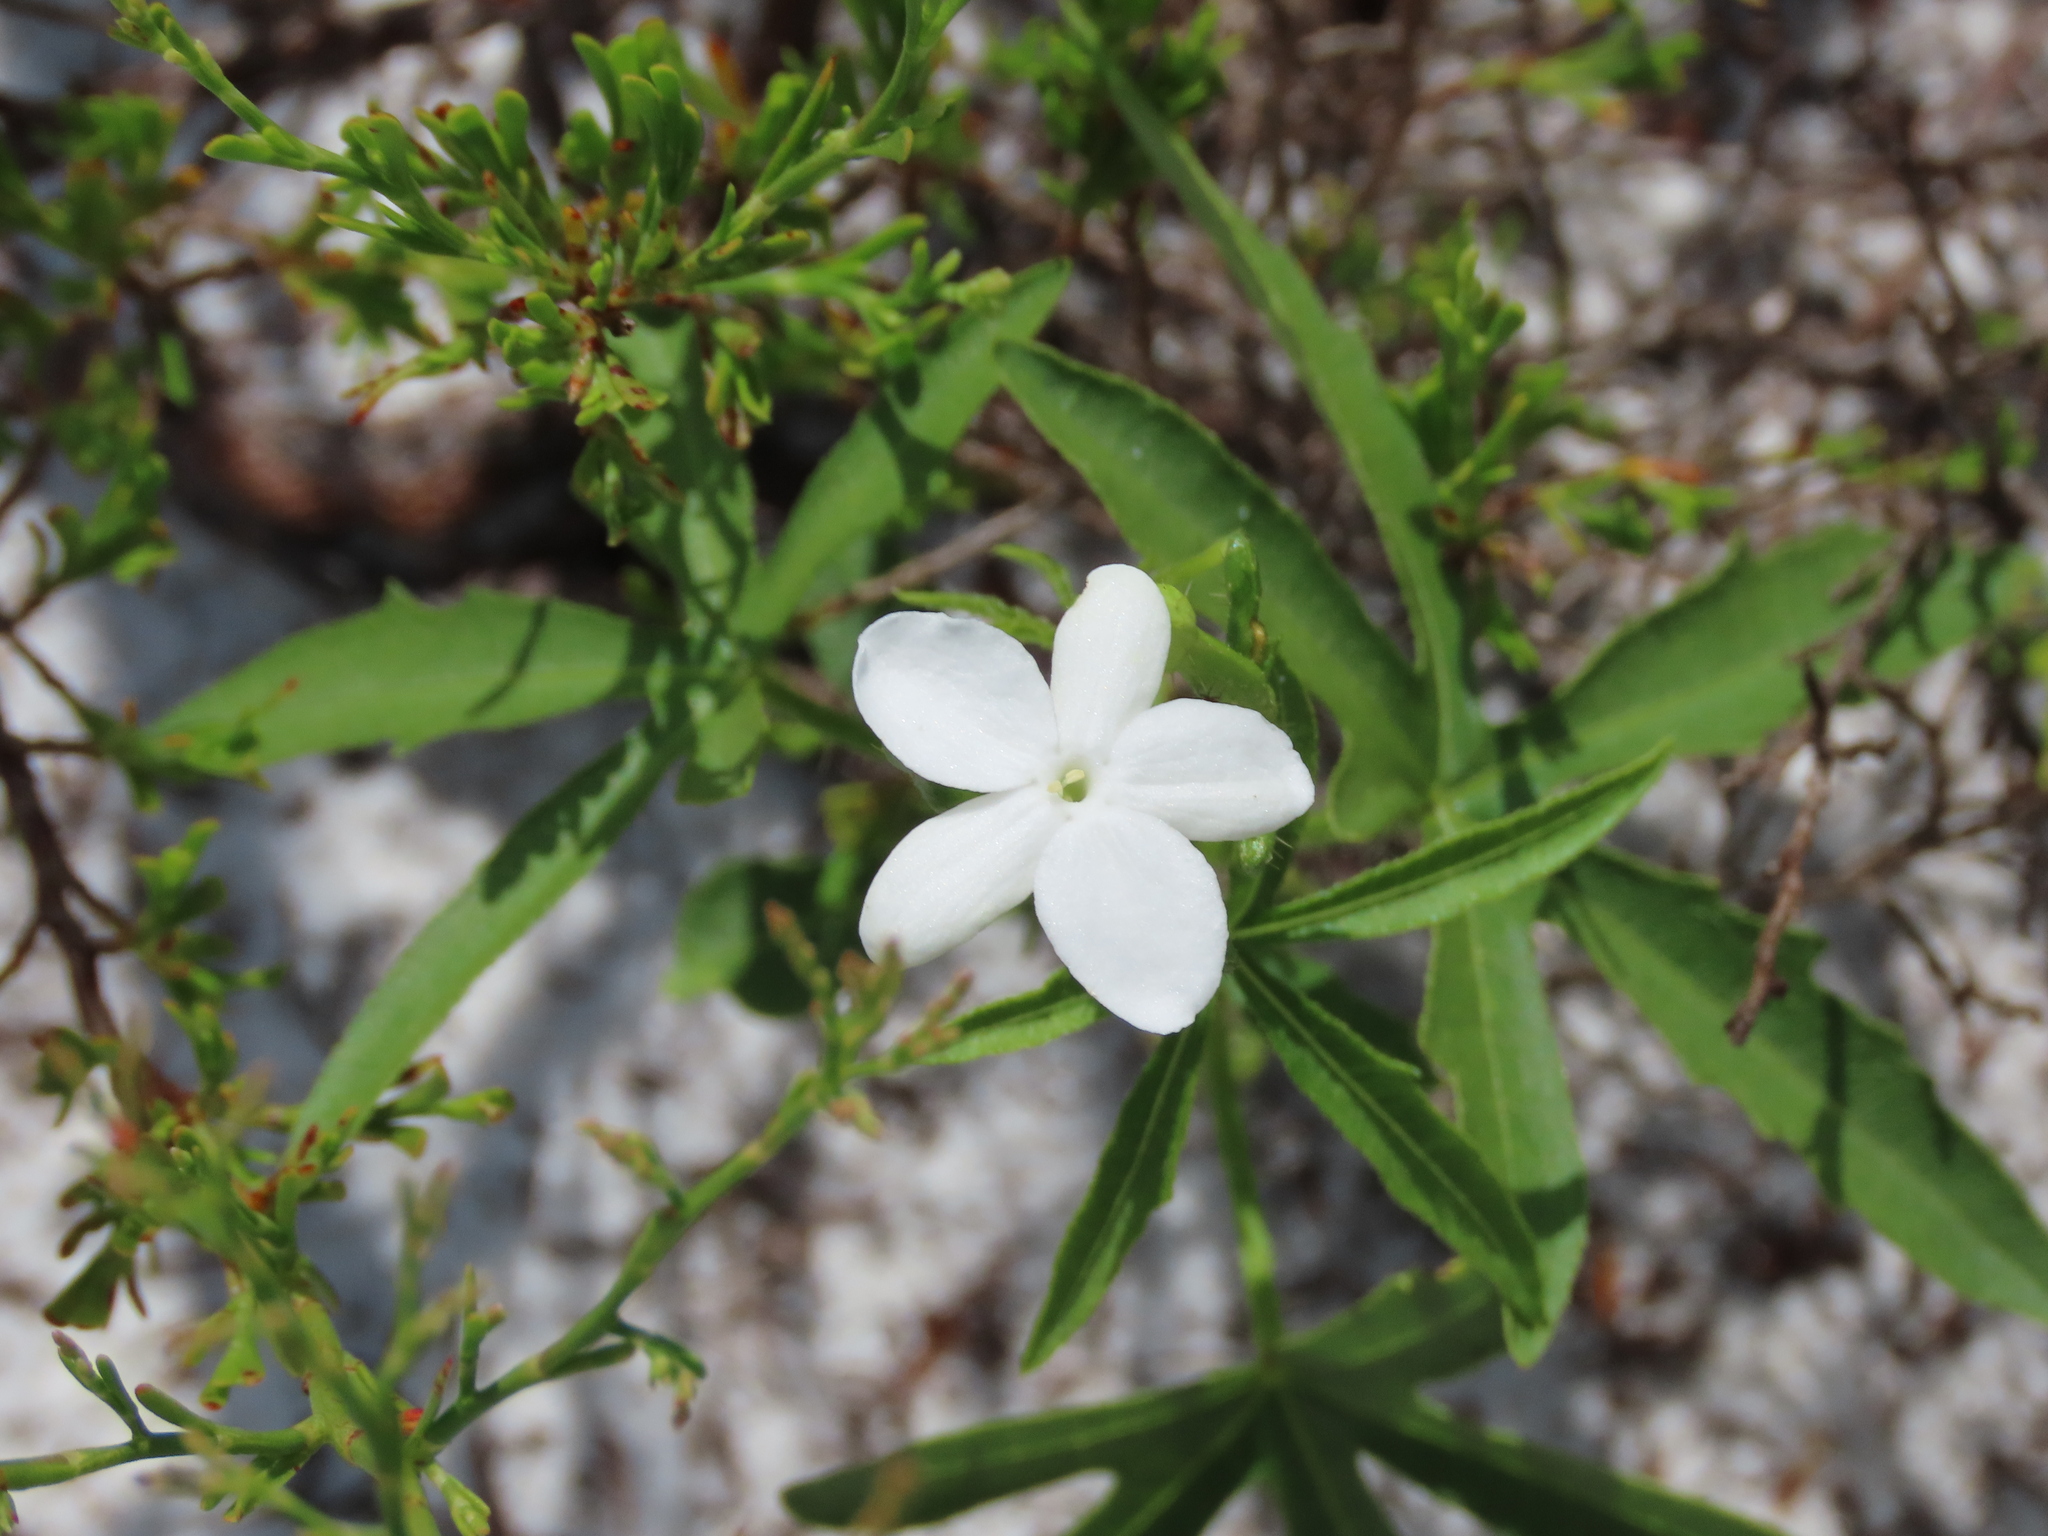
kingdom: Plantae
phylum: Tracheophyta
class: Magnoliopsida
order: Malpighiales
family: Euphorbiaceae
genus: Cnidoscolus
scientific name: Cnidoscolus stimulosus
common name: Bull-nettle
